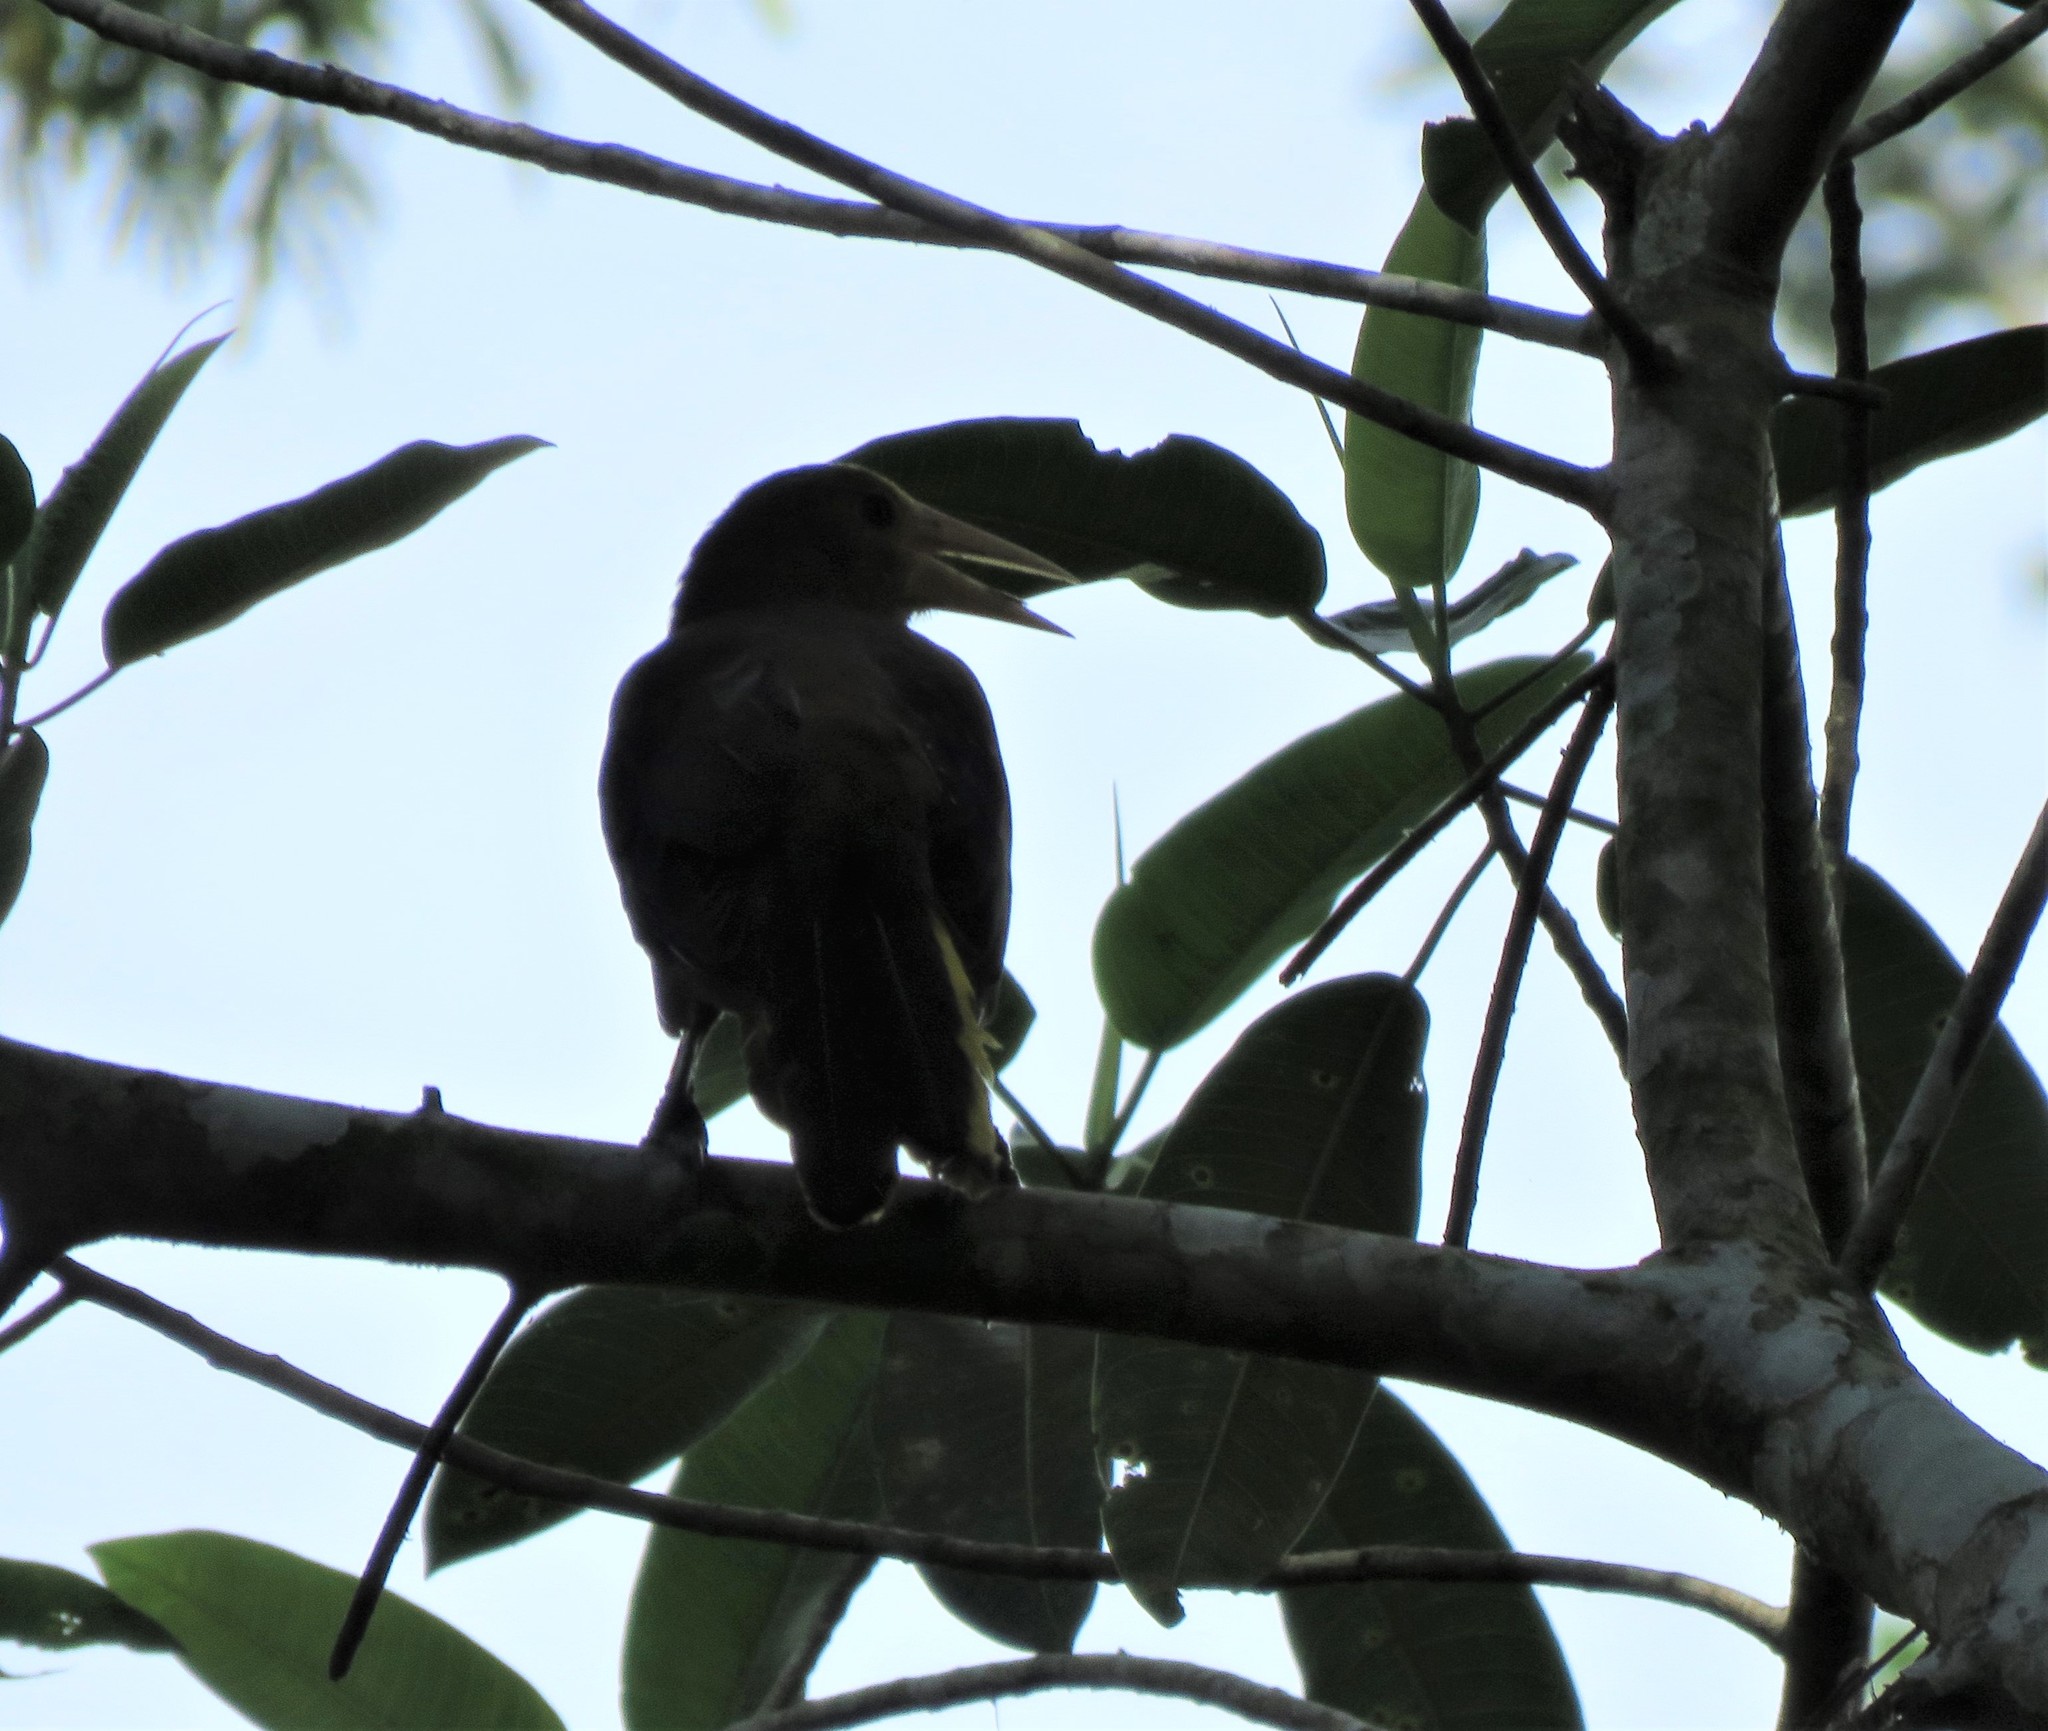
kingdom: Animalia
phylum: Chordata
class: Aves
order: Passeriformes
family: Icteridae
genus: Psarocolius
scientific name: Psarocolius angustifrons
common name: Russet-backed oropendola
